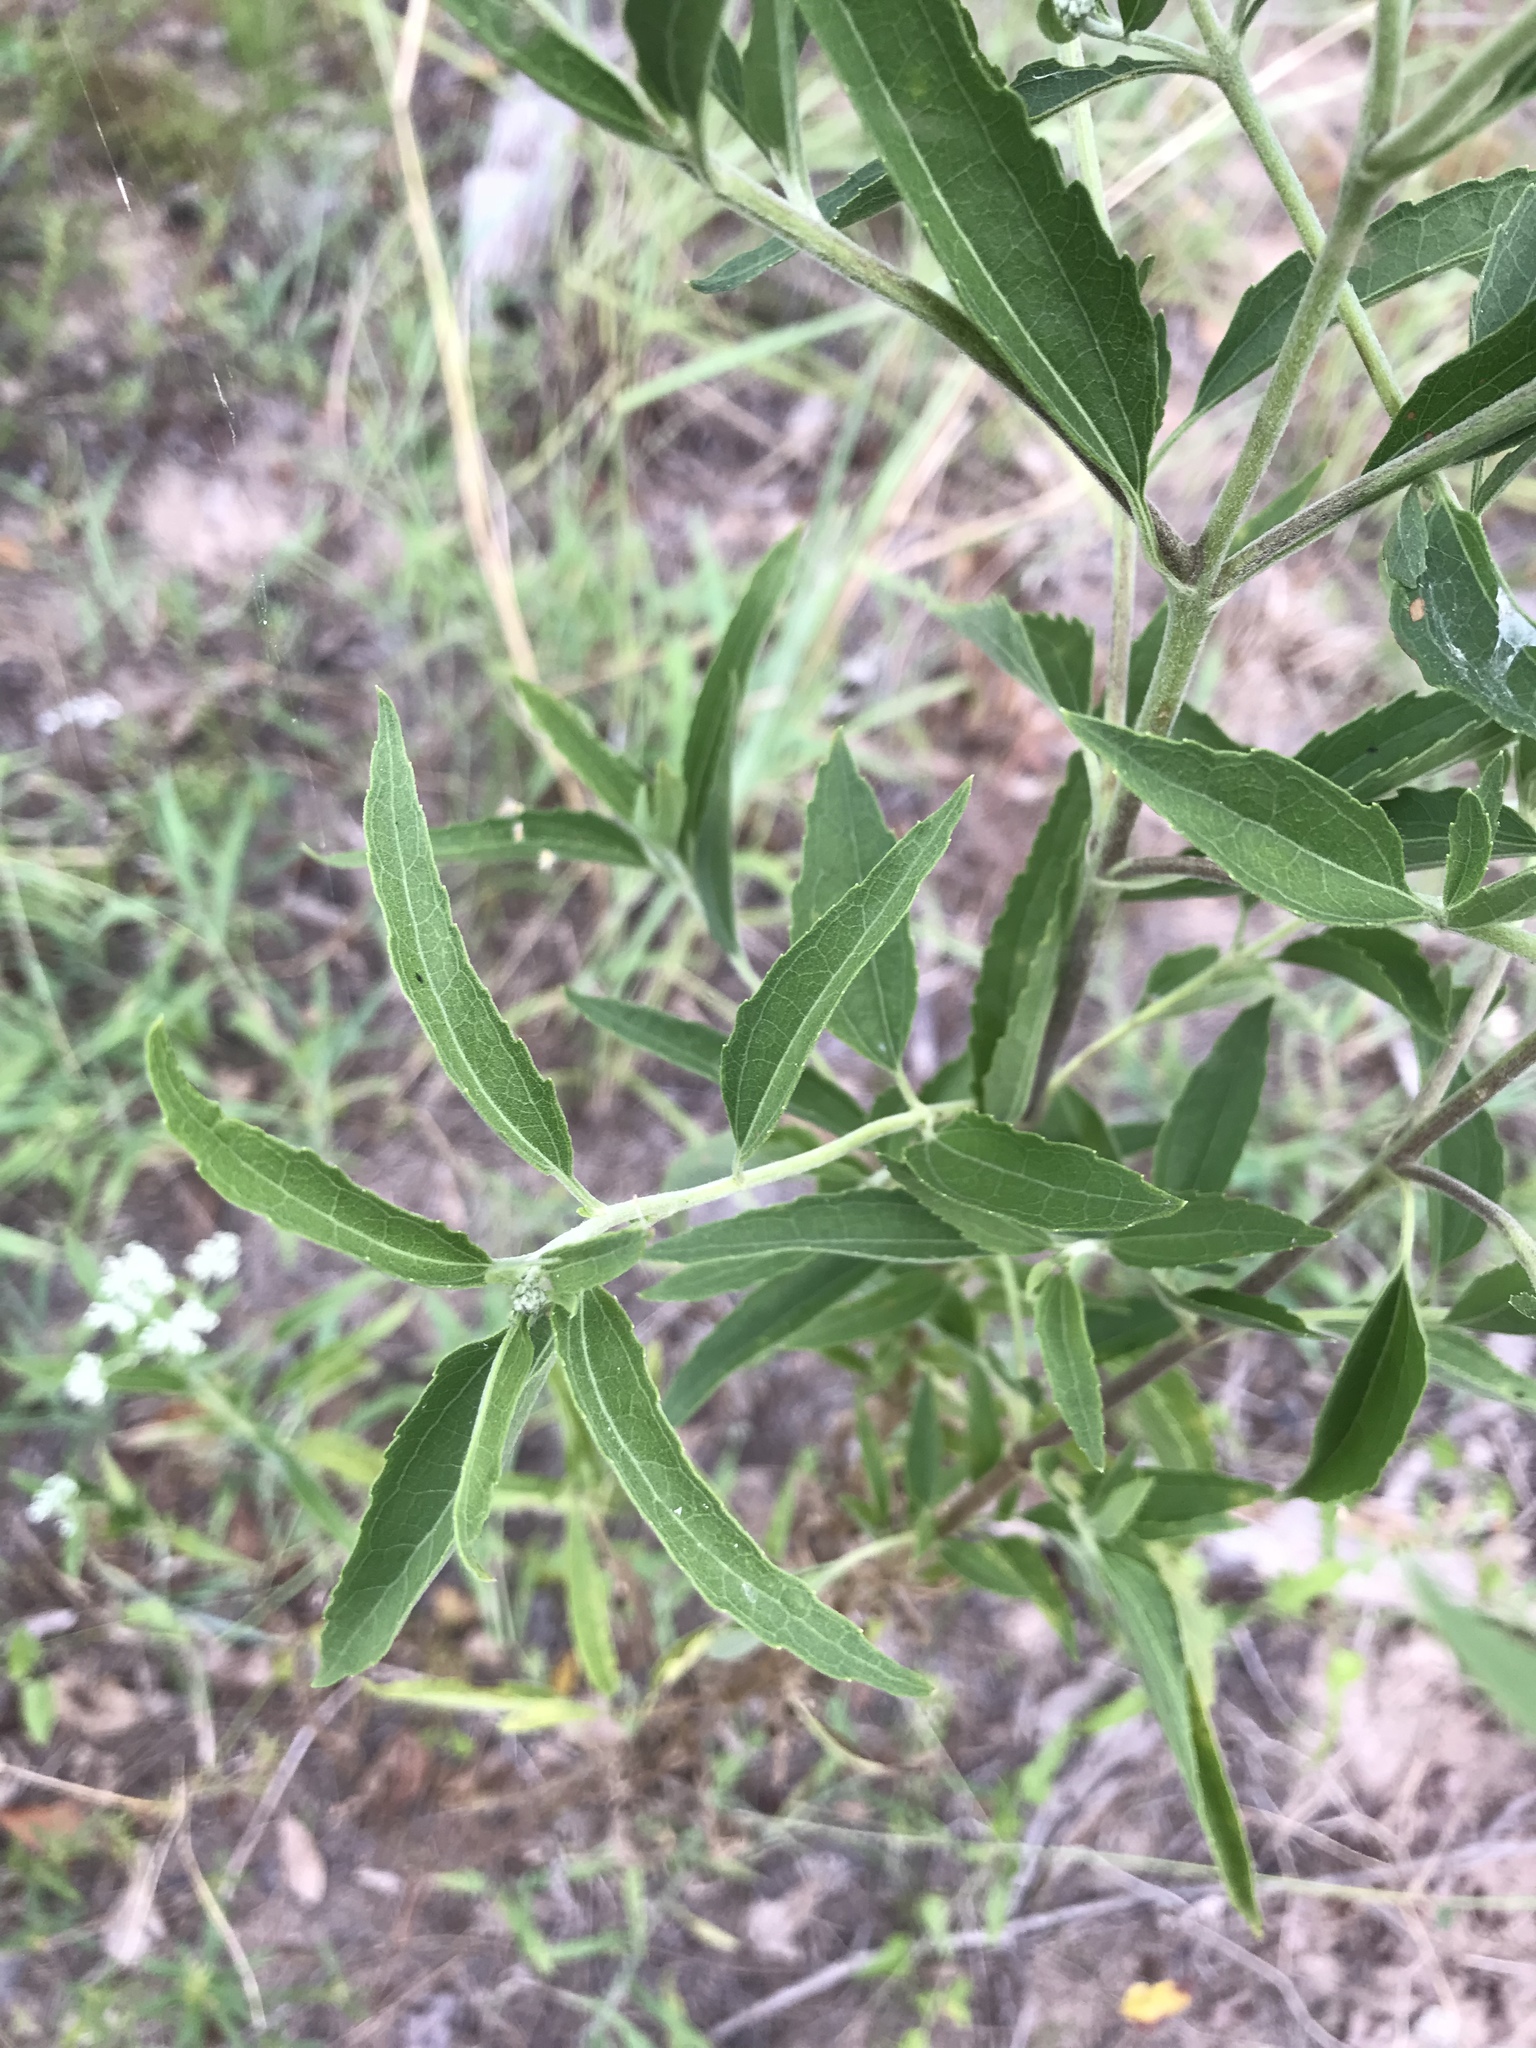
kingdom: Plantae
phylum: Tracheophyta
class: Magnoliopsida
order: Asterales
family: Asteraceae
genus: Eupatorium
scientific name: Eupatorium serotinum
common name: Late boneset
